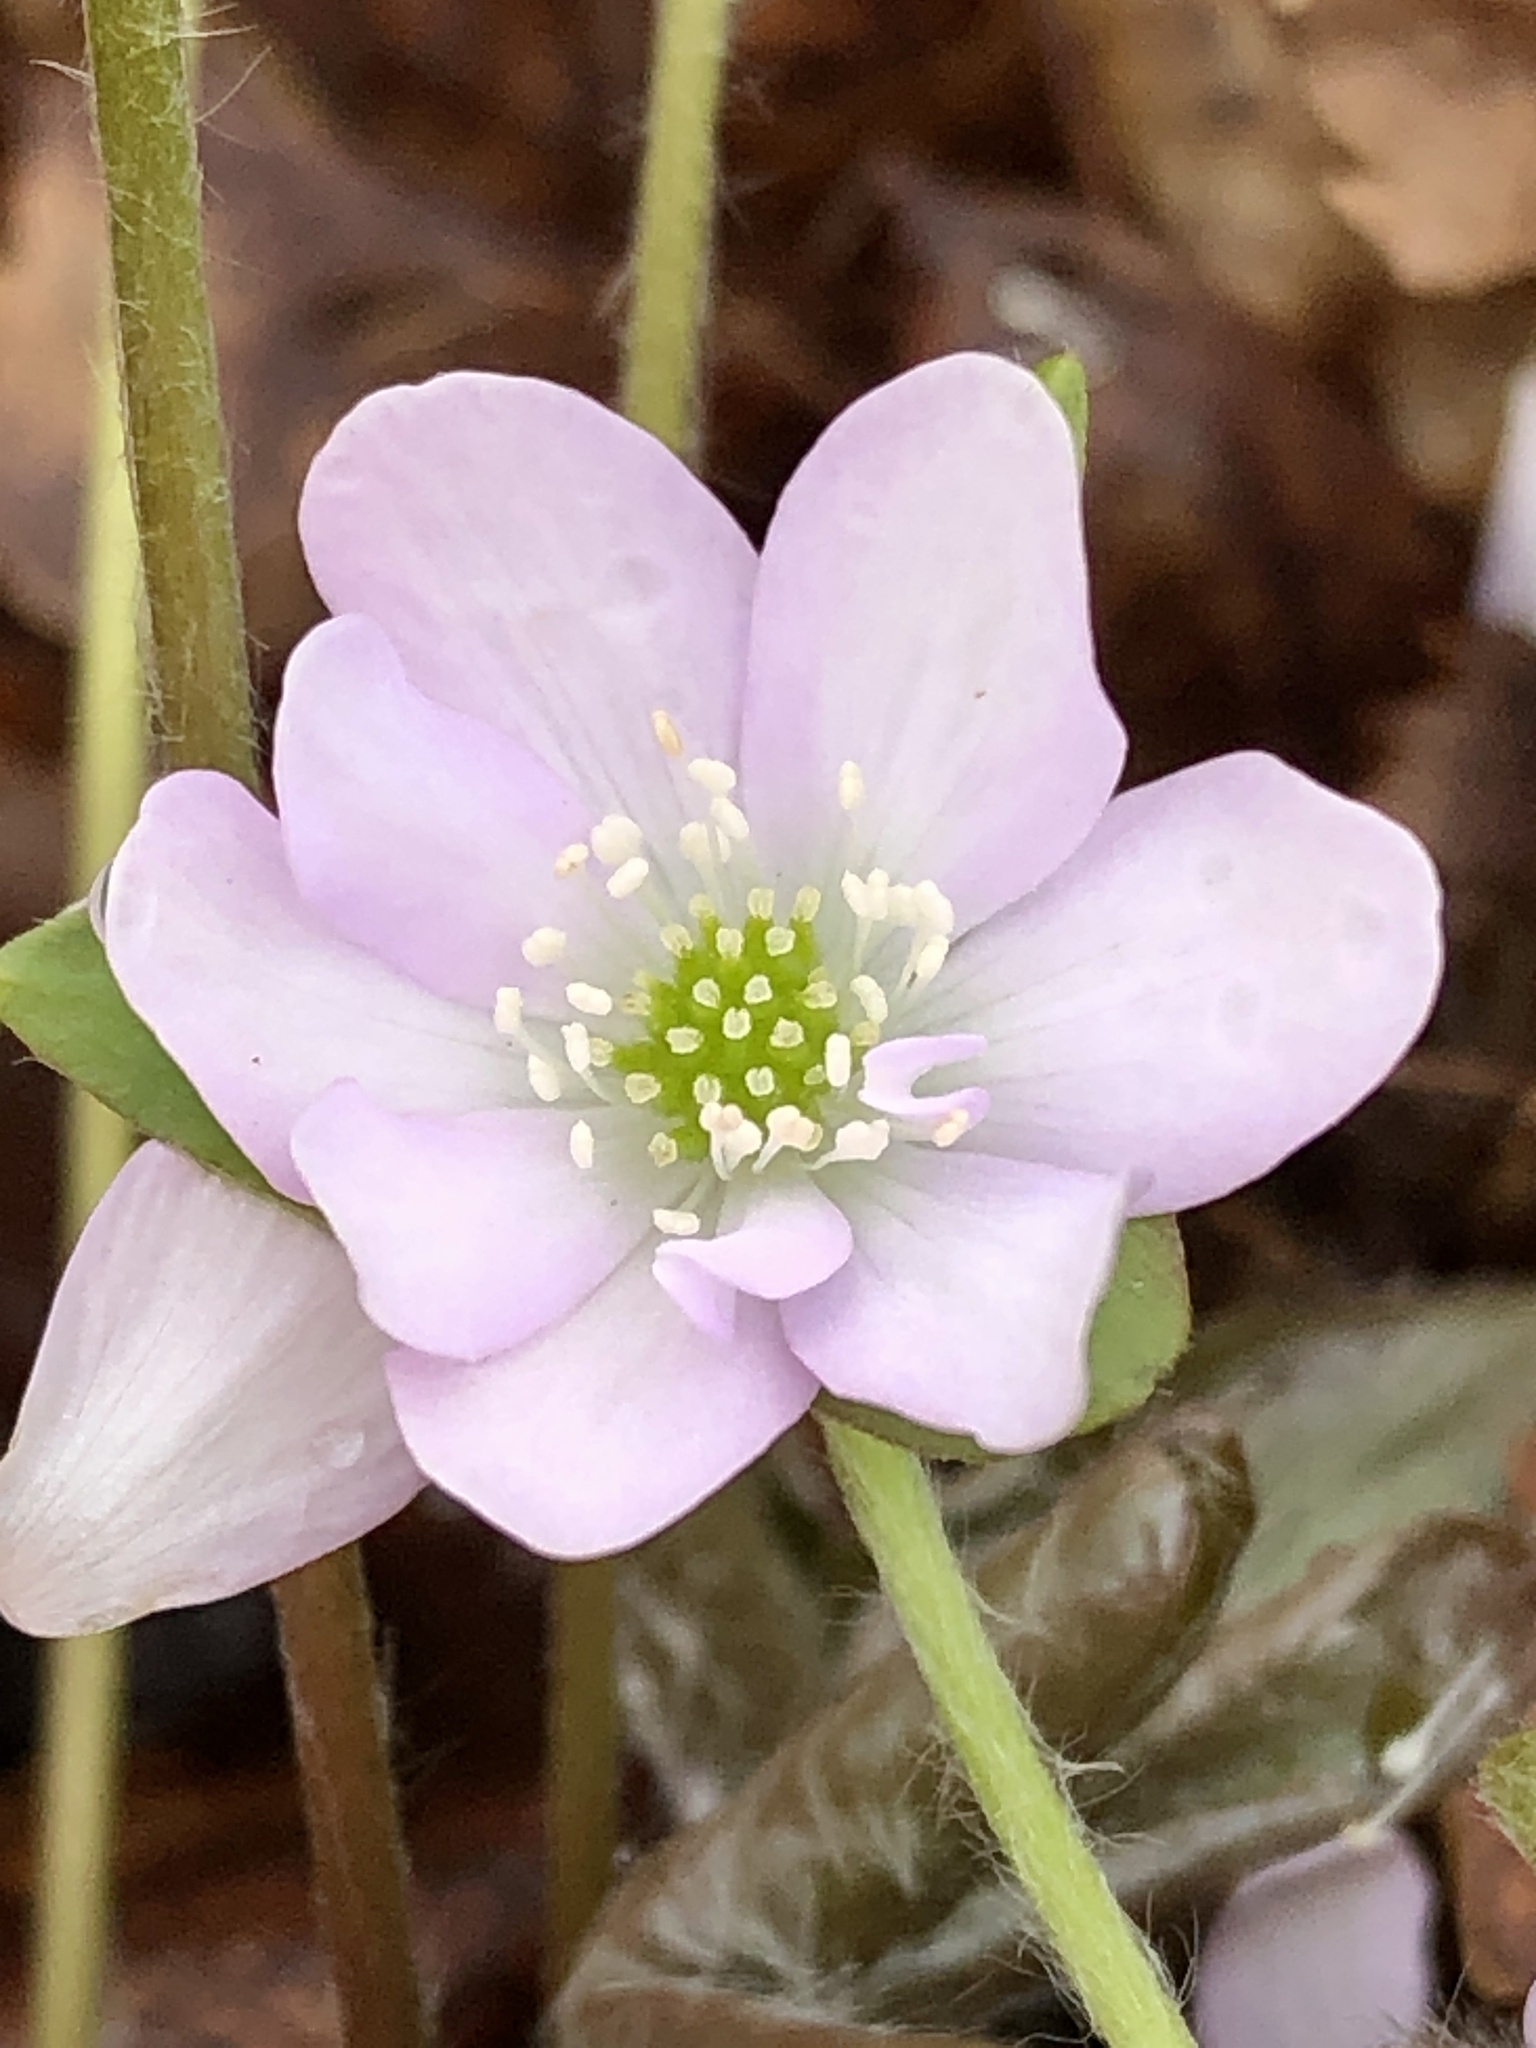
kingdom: Plantae
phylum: Tracheophyta
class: Magnoliopsida
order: Ranunculales
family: Ranunculaceae
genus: Hepatica
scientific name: Hepatica acutiloba
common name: Sharp-lobed hepatica
